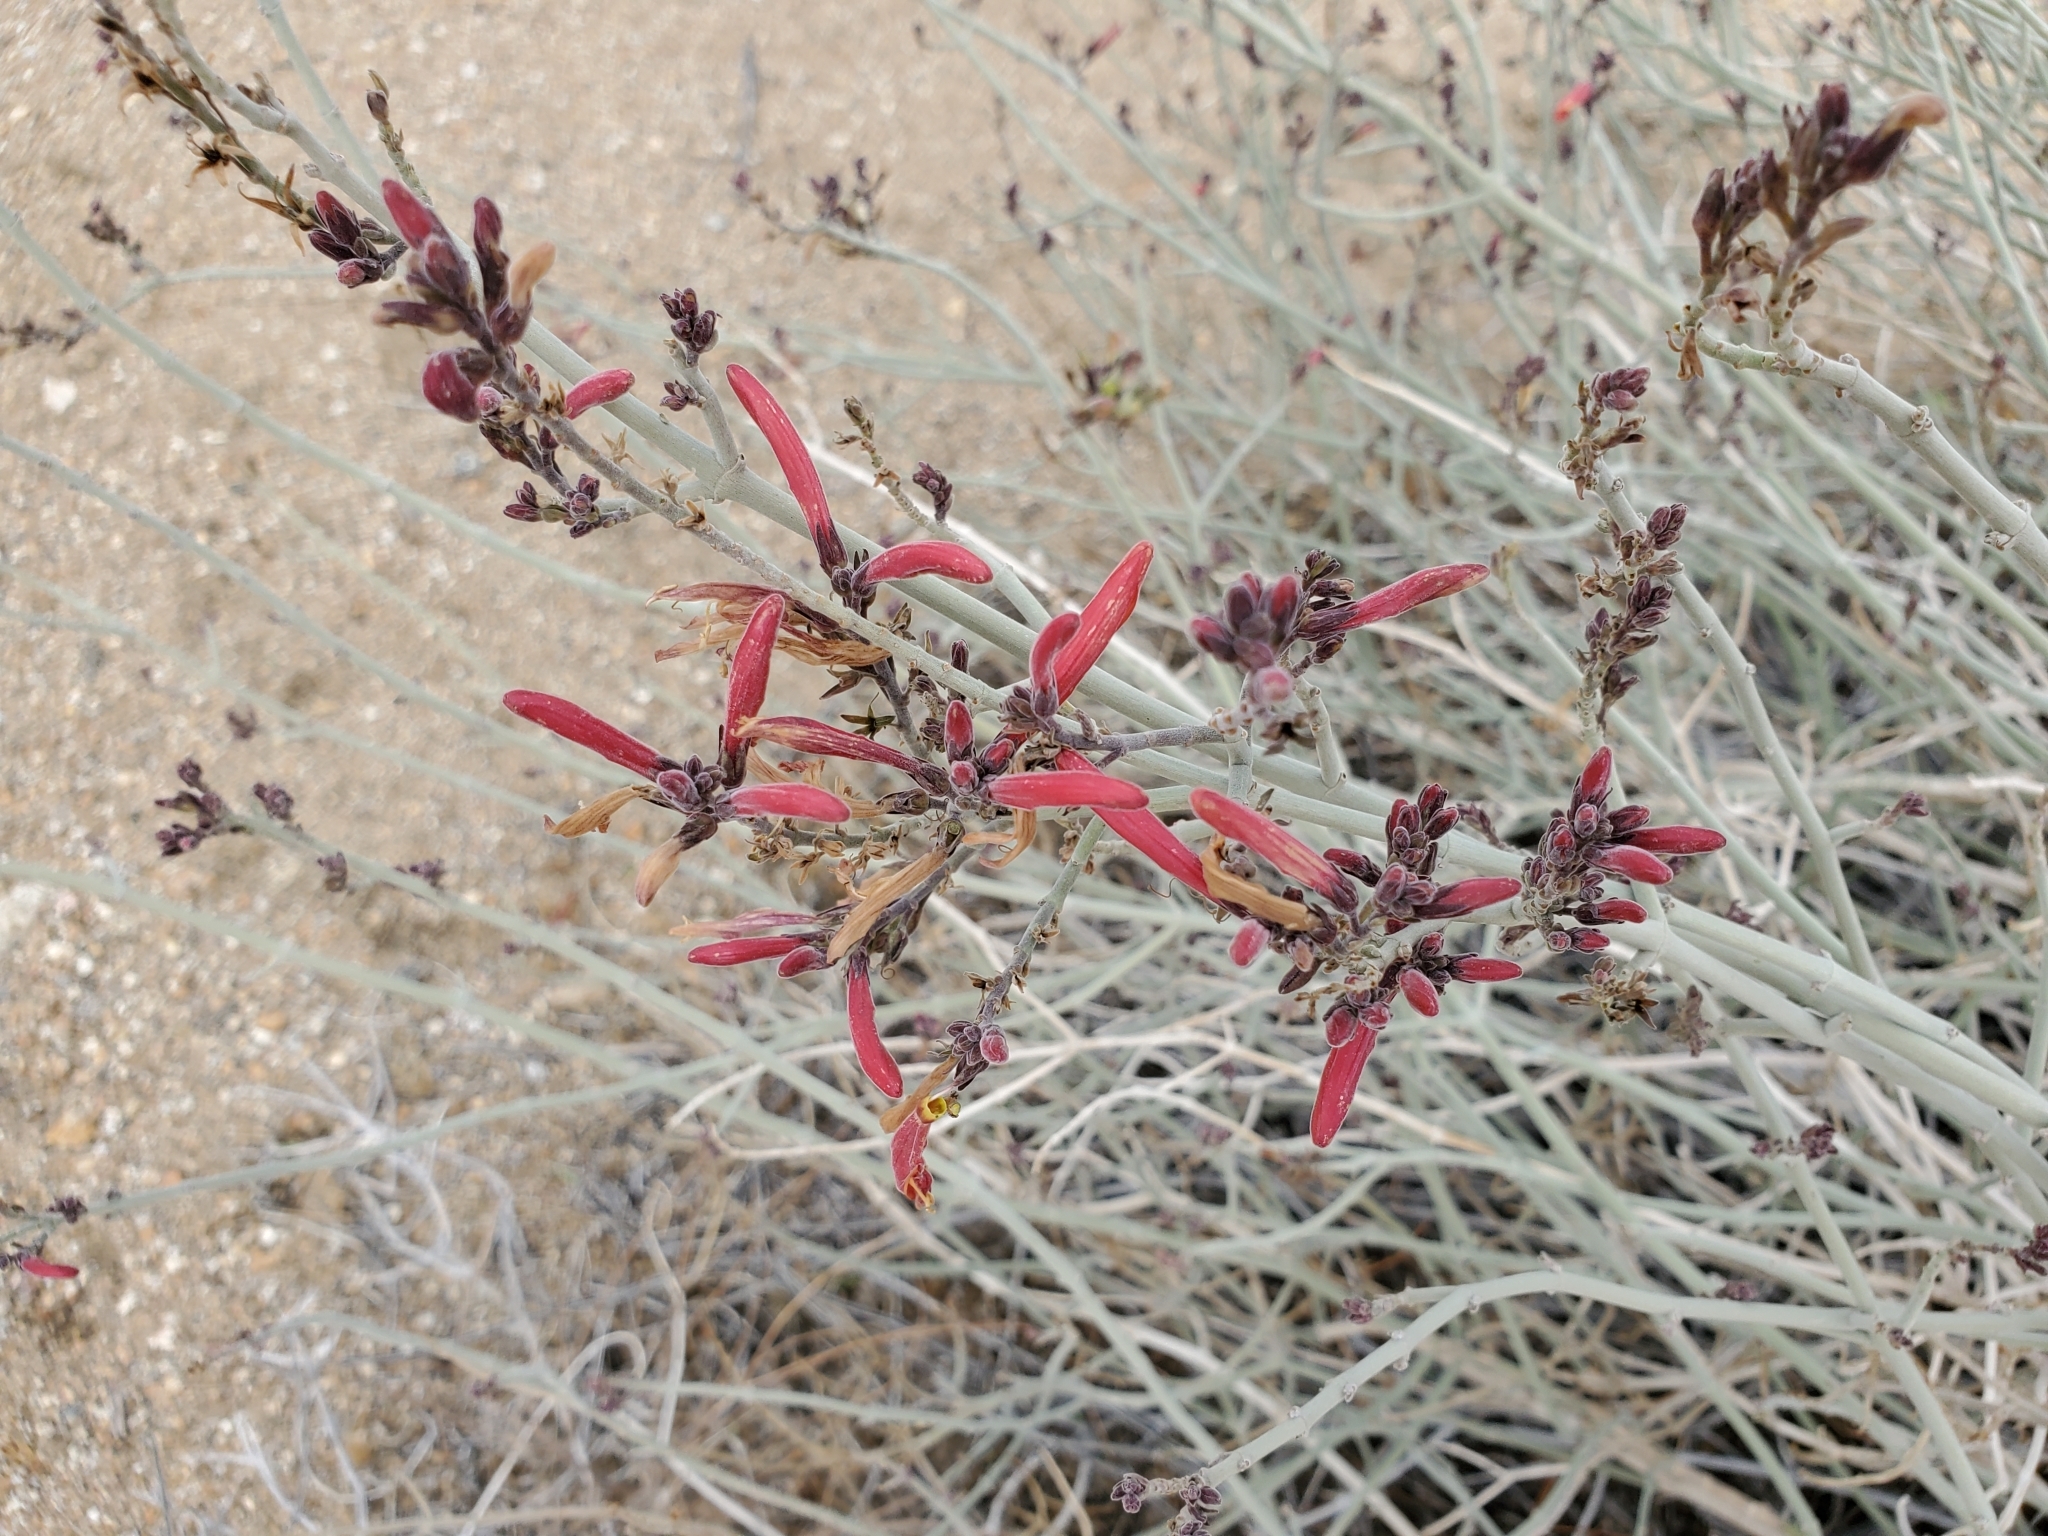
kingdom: Plantae
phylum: Tracheophyta
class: Magnoliopsida
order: Lamiales
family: Acanthaceae
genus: Justicia
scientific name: Justicia californica
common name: Chuparosa-honeysuckle
